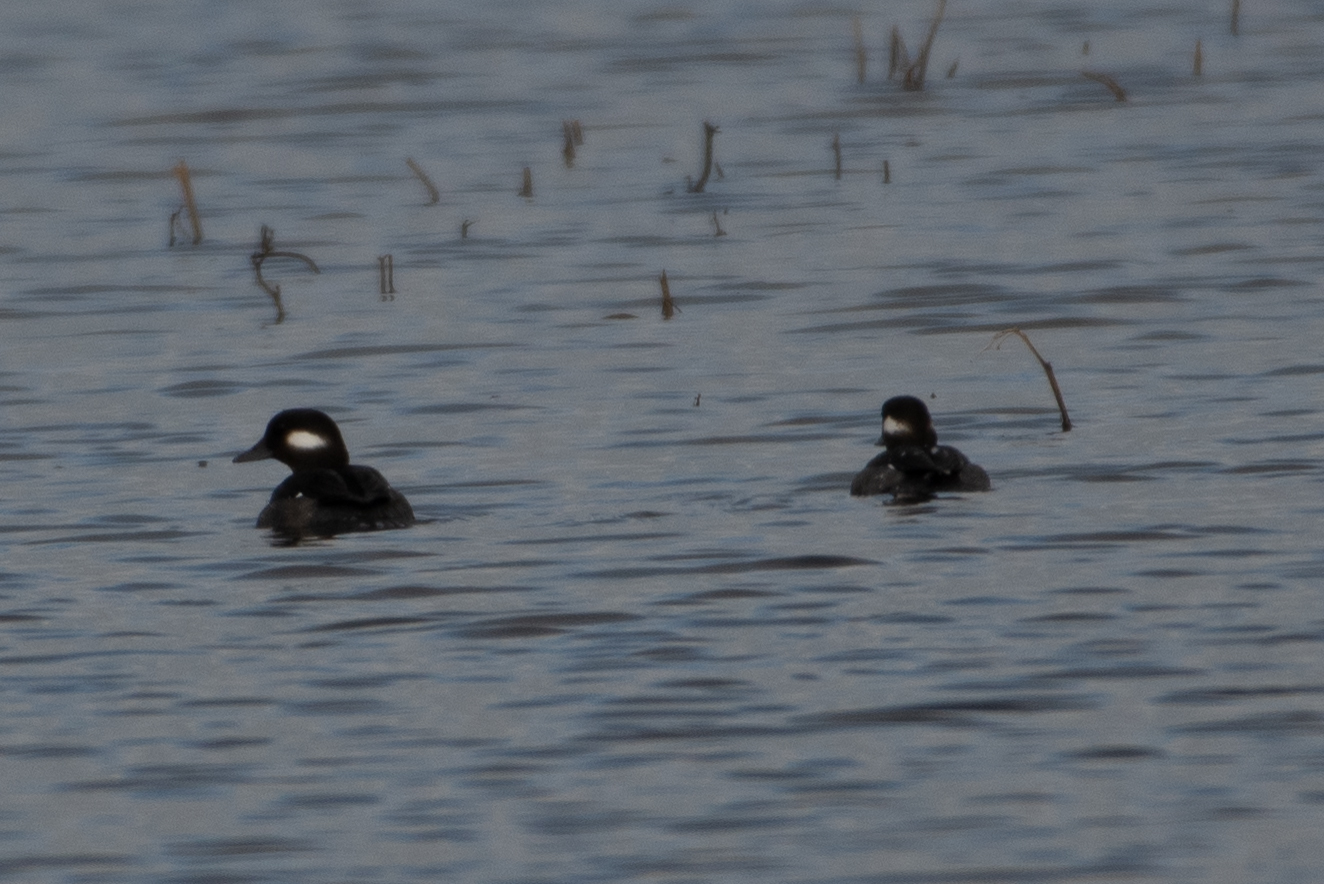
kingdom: Animalia
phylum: Chordata
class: Aves
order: Anseriformes
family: Anatidae
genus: Bucephala
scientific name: Bucephala albeola
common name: Bufflehead
